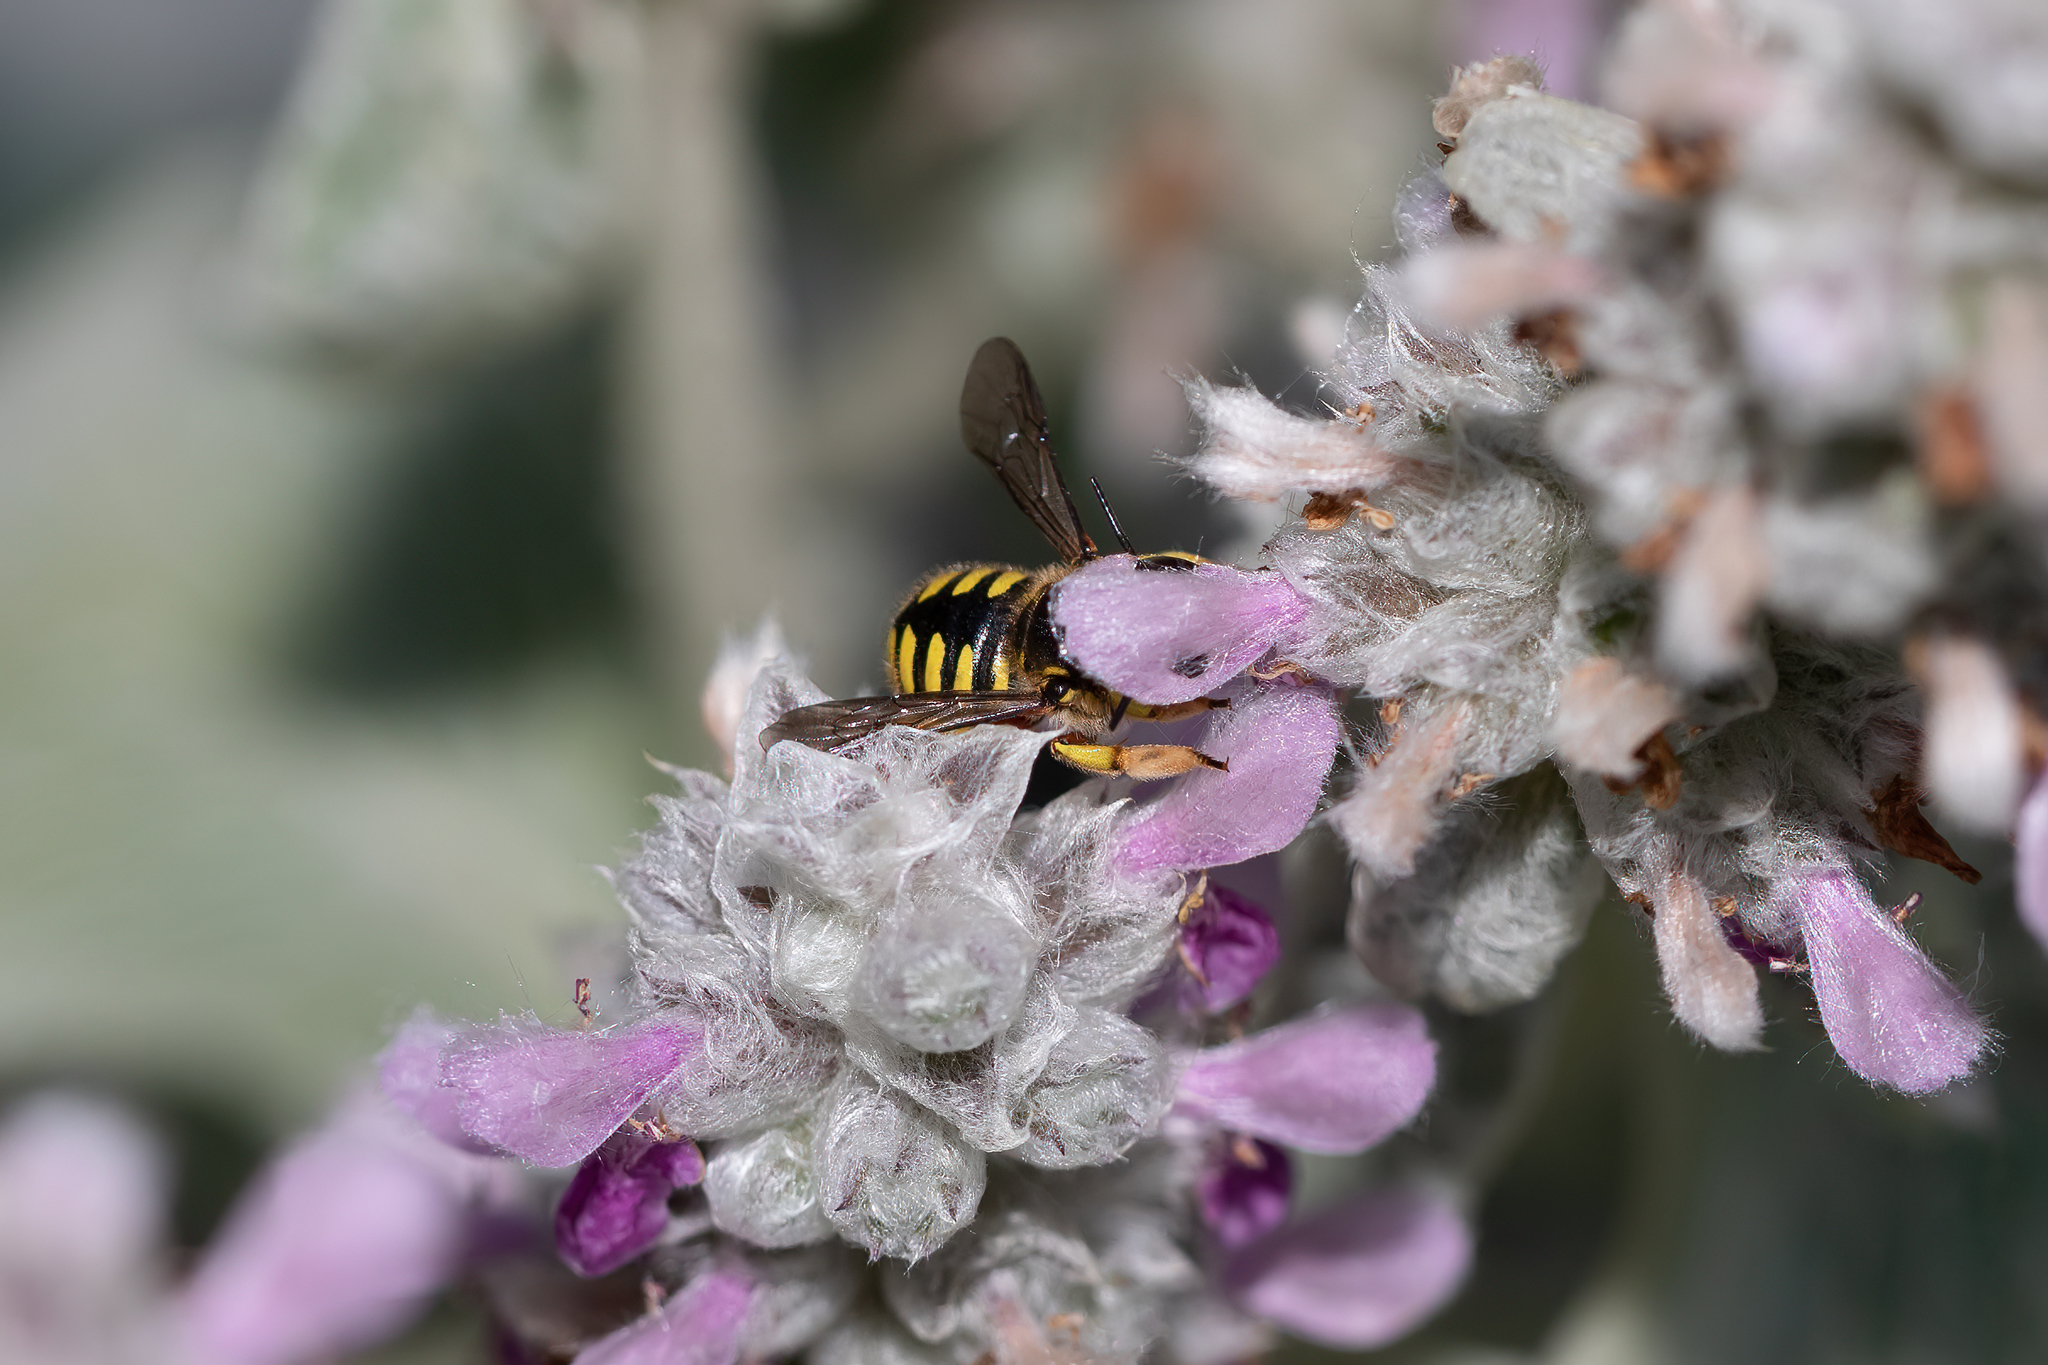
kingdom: Animalia
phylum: Arthropoda
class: Insecta
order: Hymenoptera
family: Megachilidae
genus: Anthidium
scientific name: Anthidium manicatum
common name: Wool carder bee
